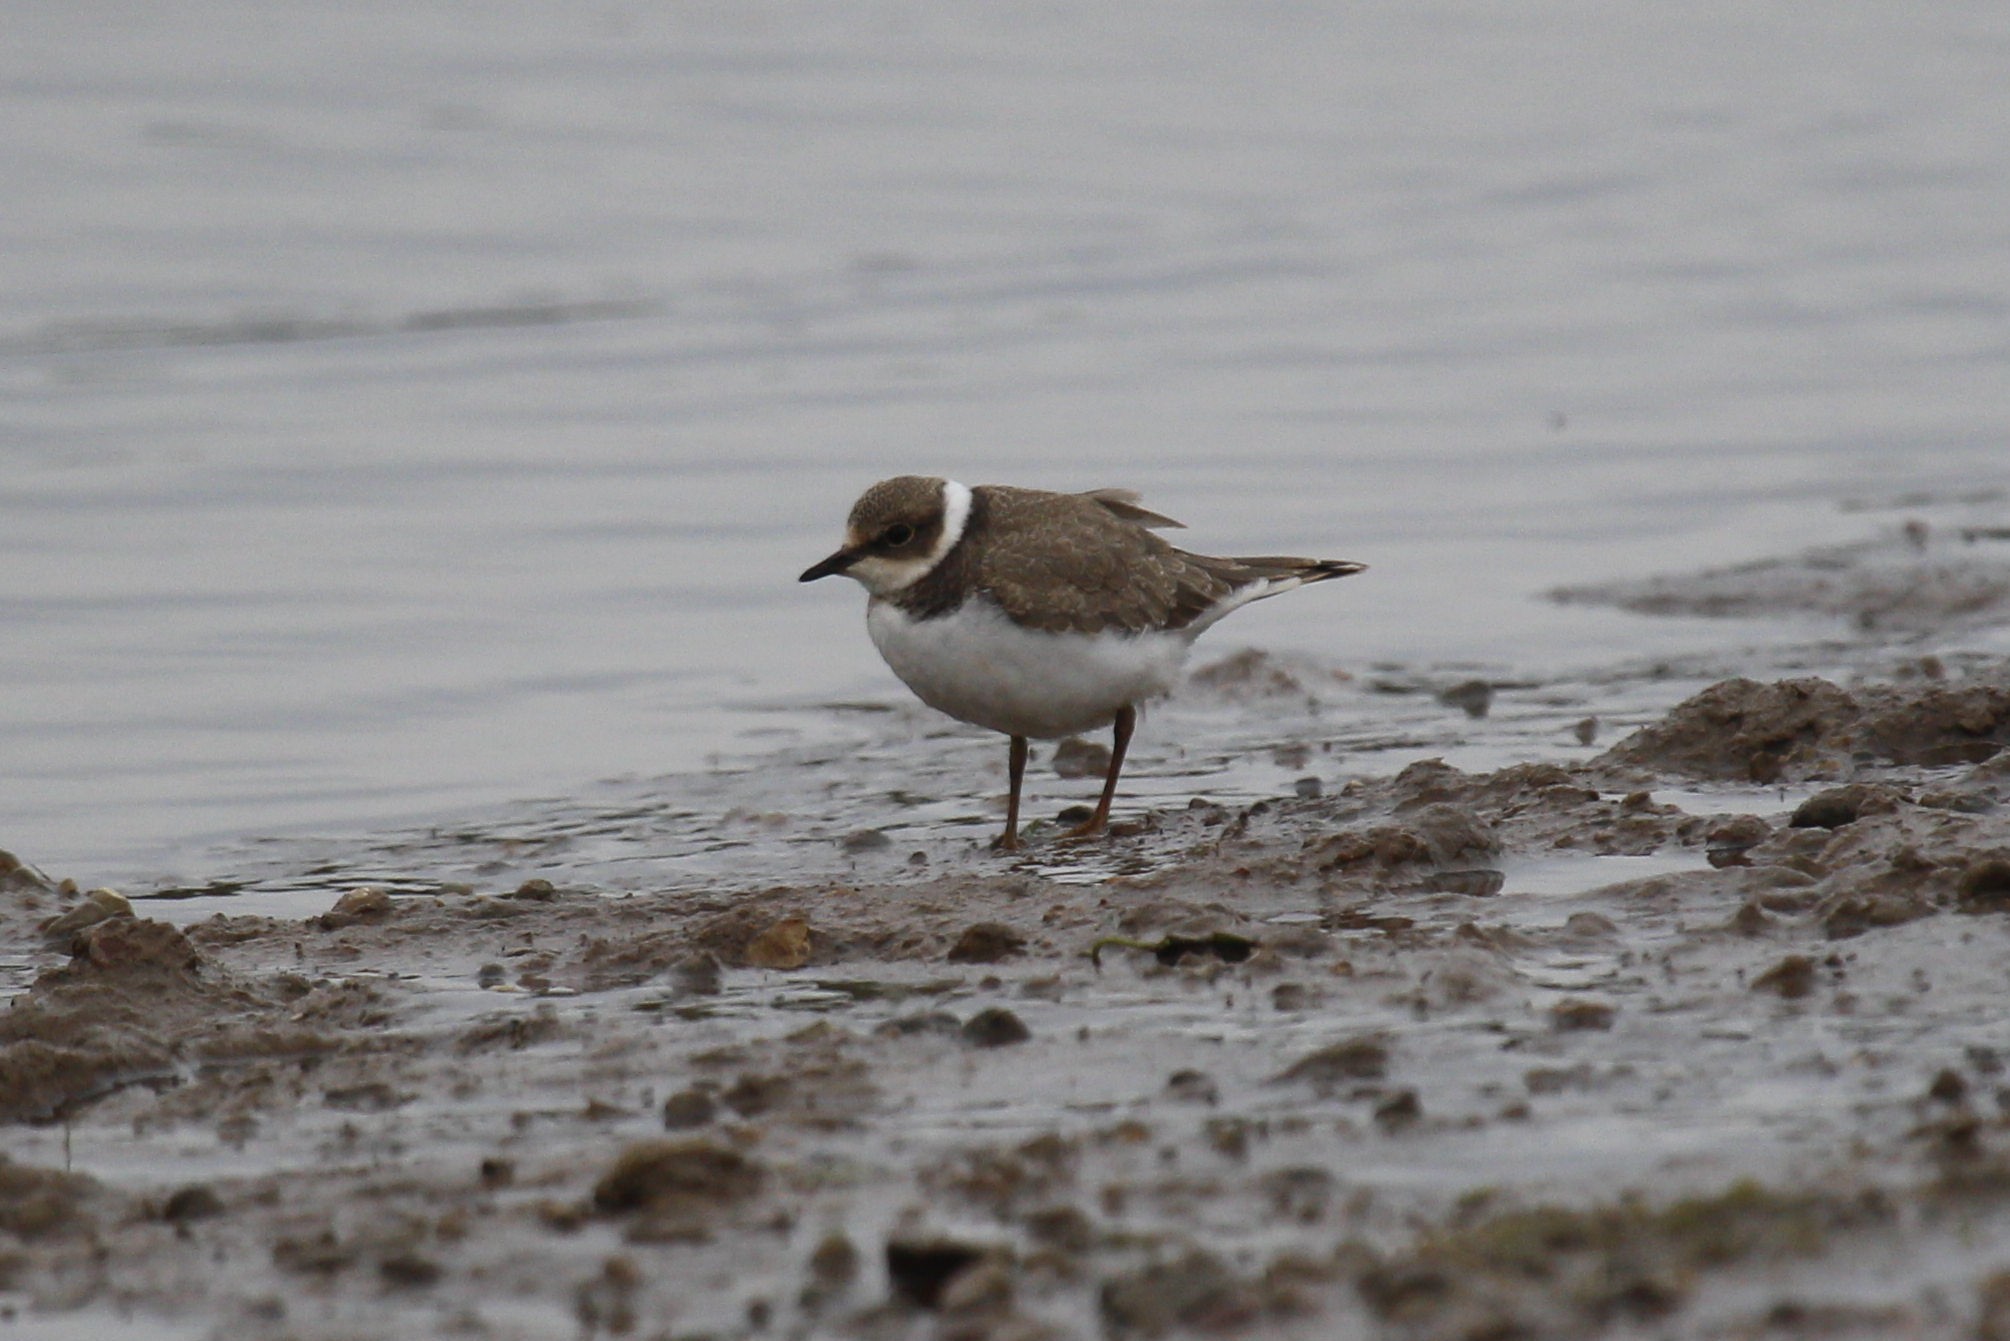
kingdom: Animalia
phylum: Chordata
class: Aves
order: Charadriiformes
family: Charadriidae
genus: Charadrius
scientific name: Charadrius dubius
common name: Little ringed plover
